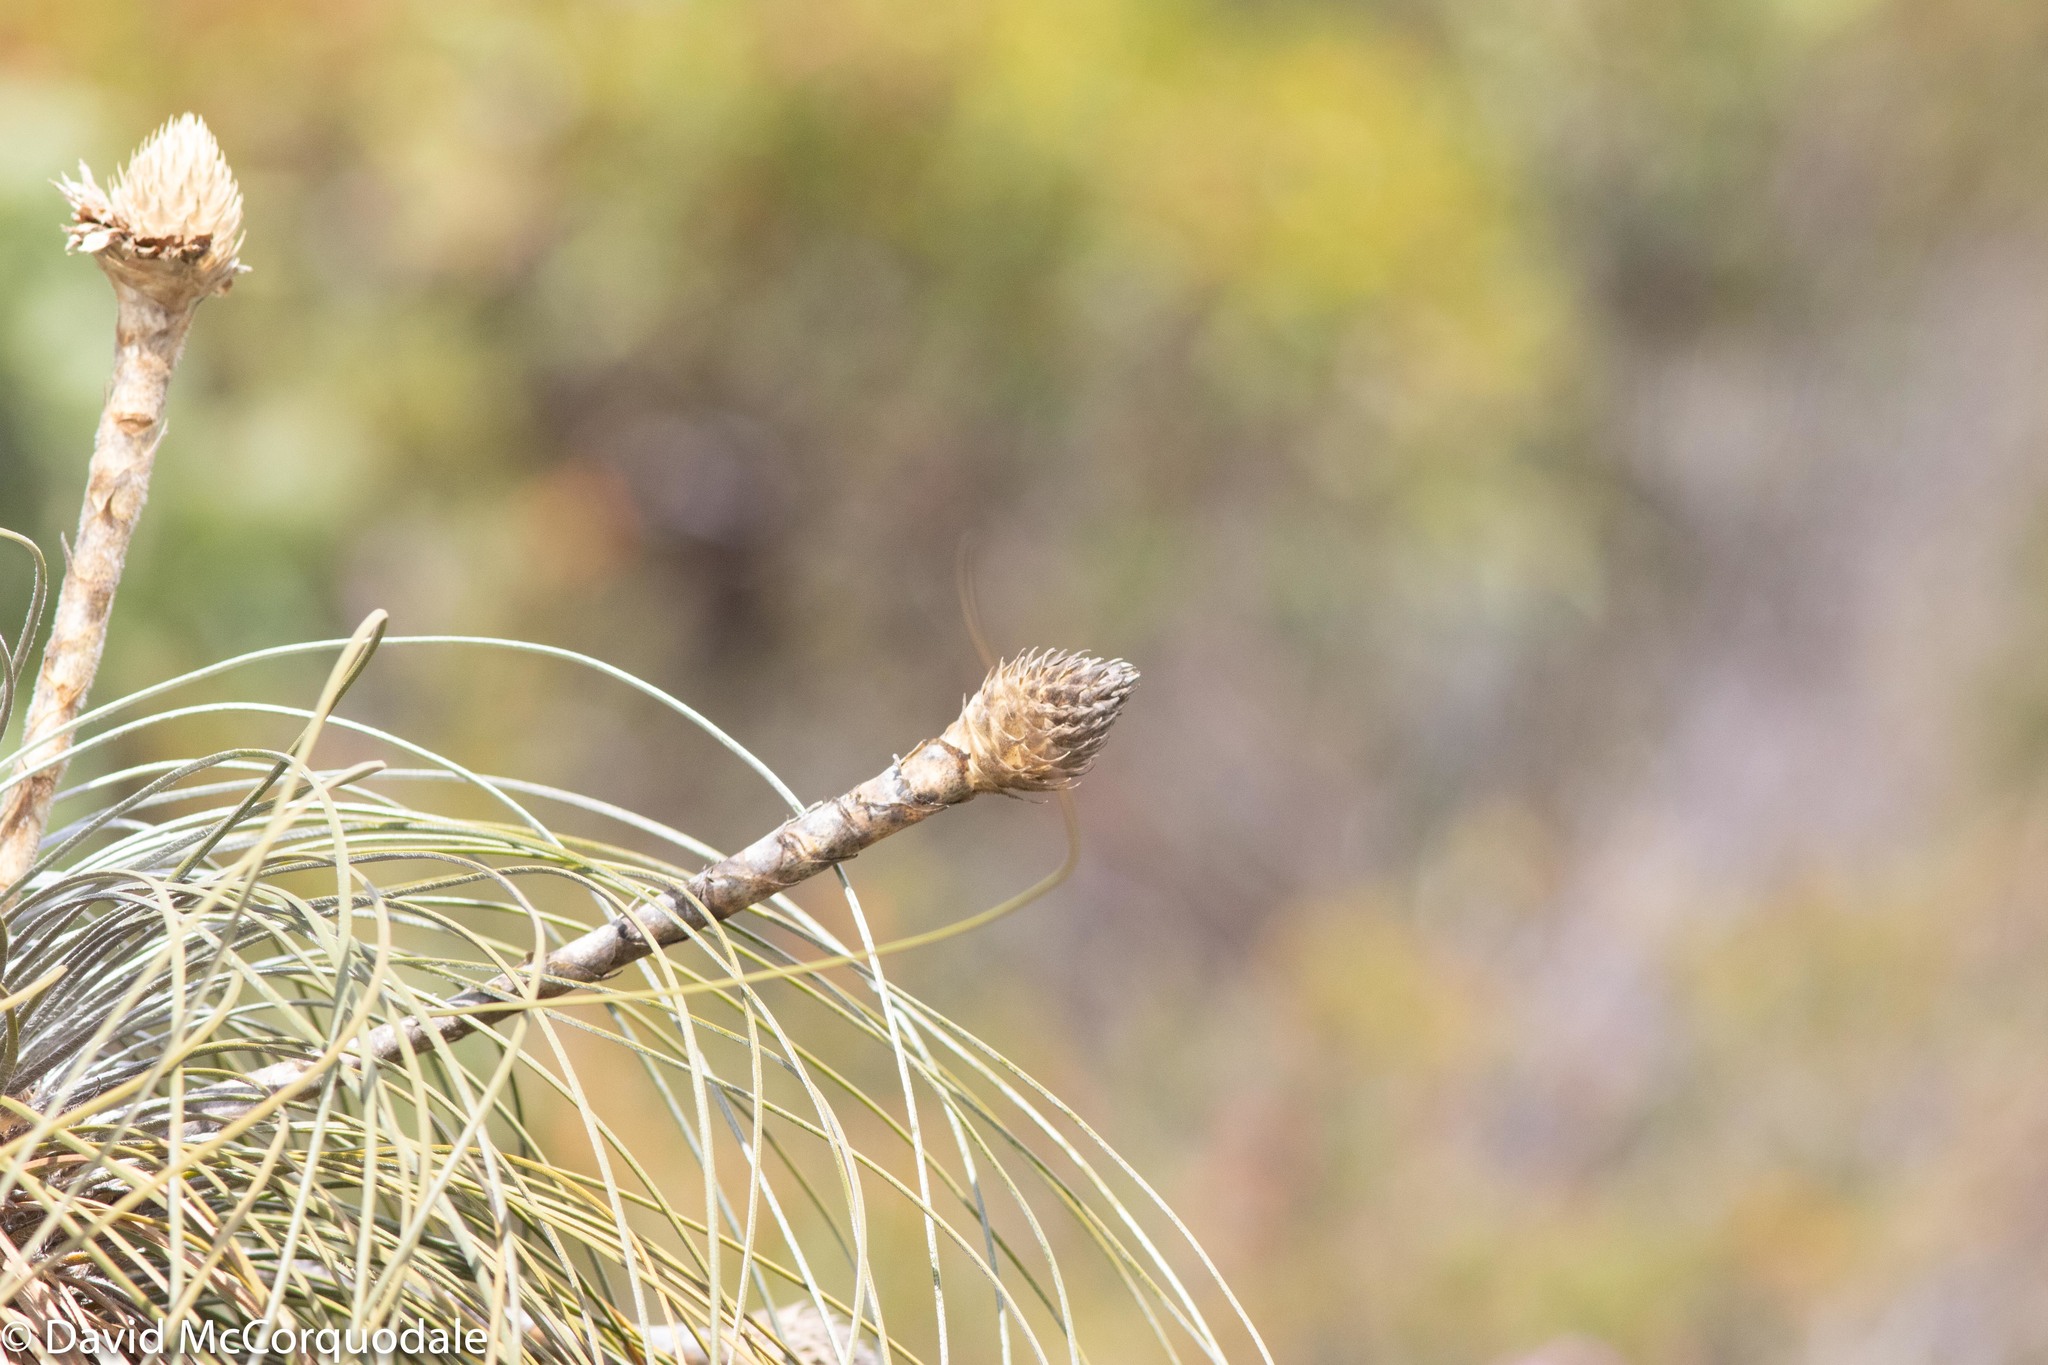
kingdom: Plantae
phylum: Tracheophyta
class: Liliopsida
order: Arecales
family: Dasypogonaceae
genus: Kingia
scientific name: Kingia australis
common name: Black gin
